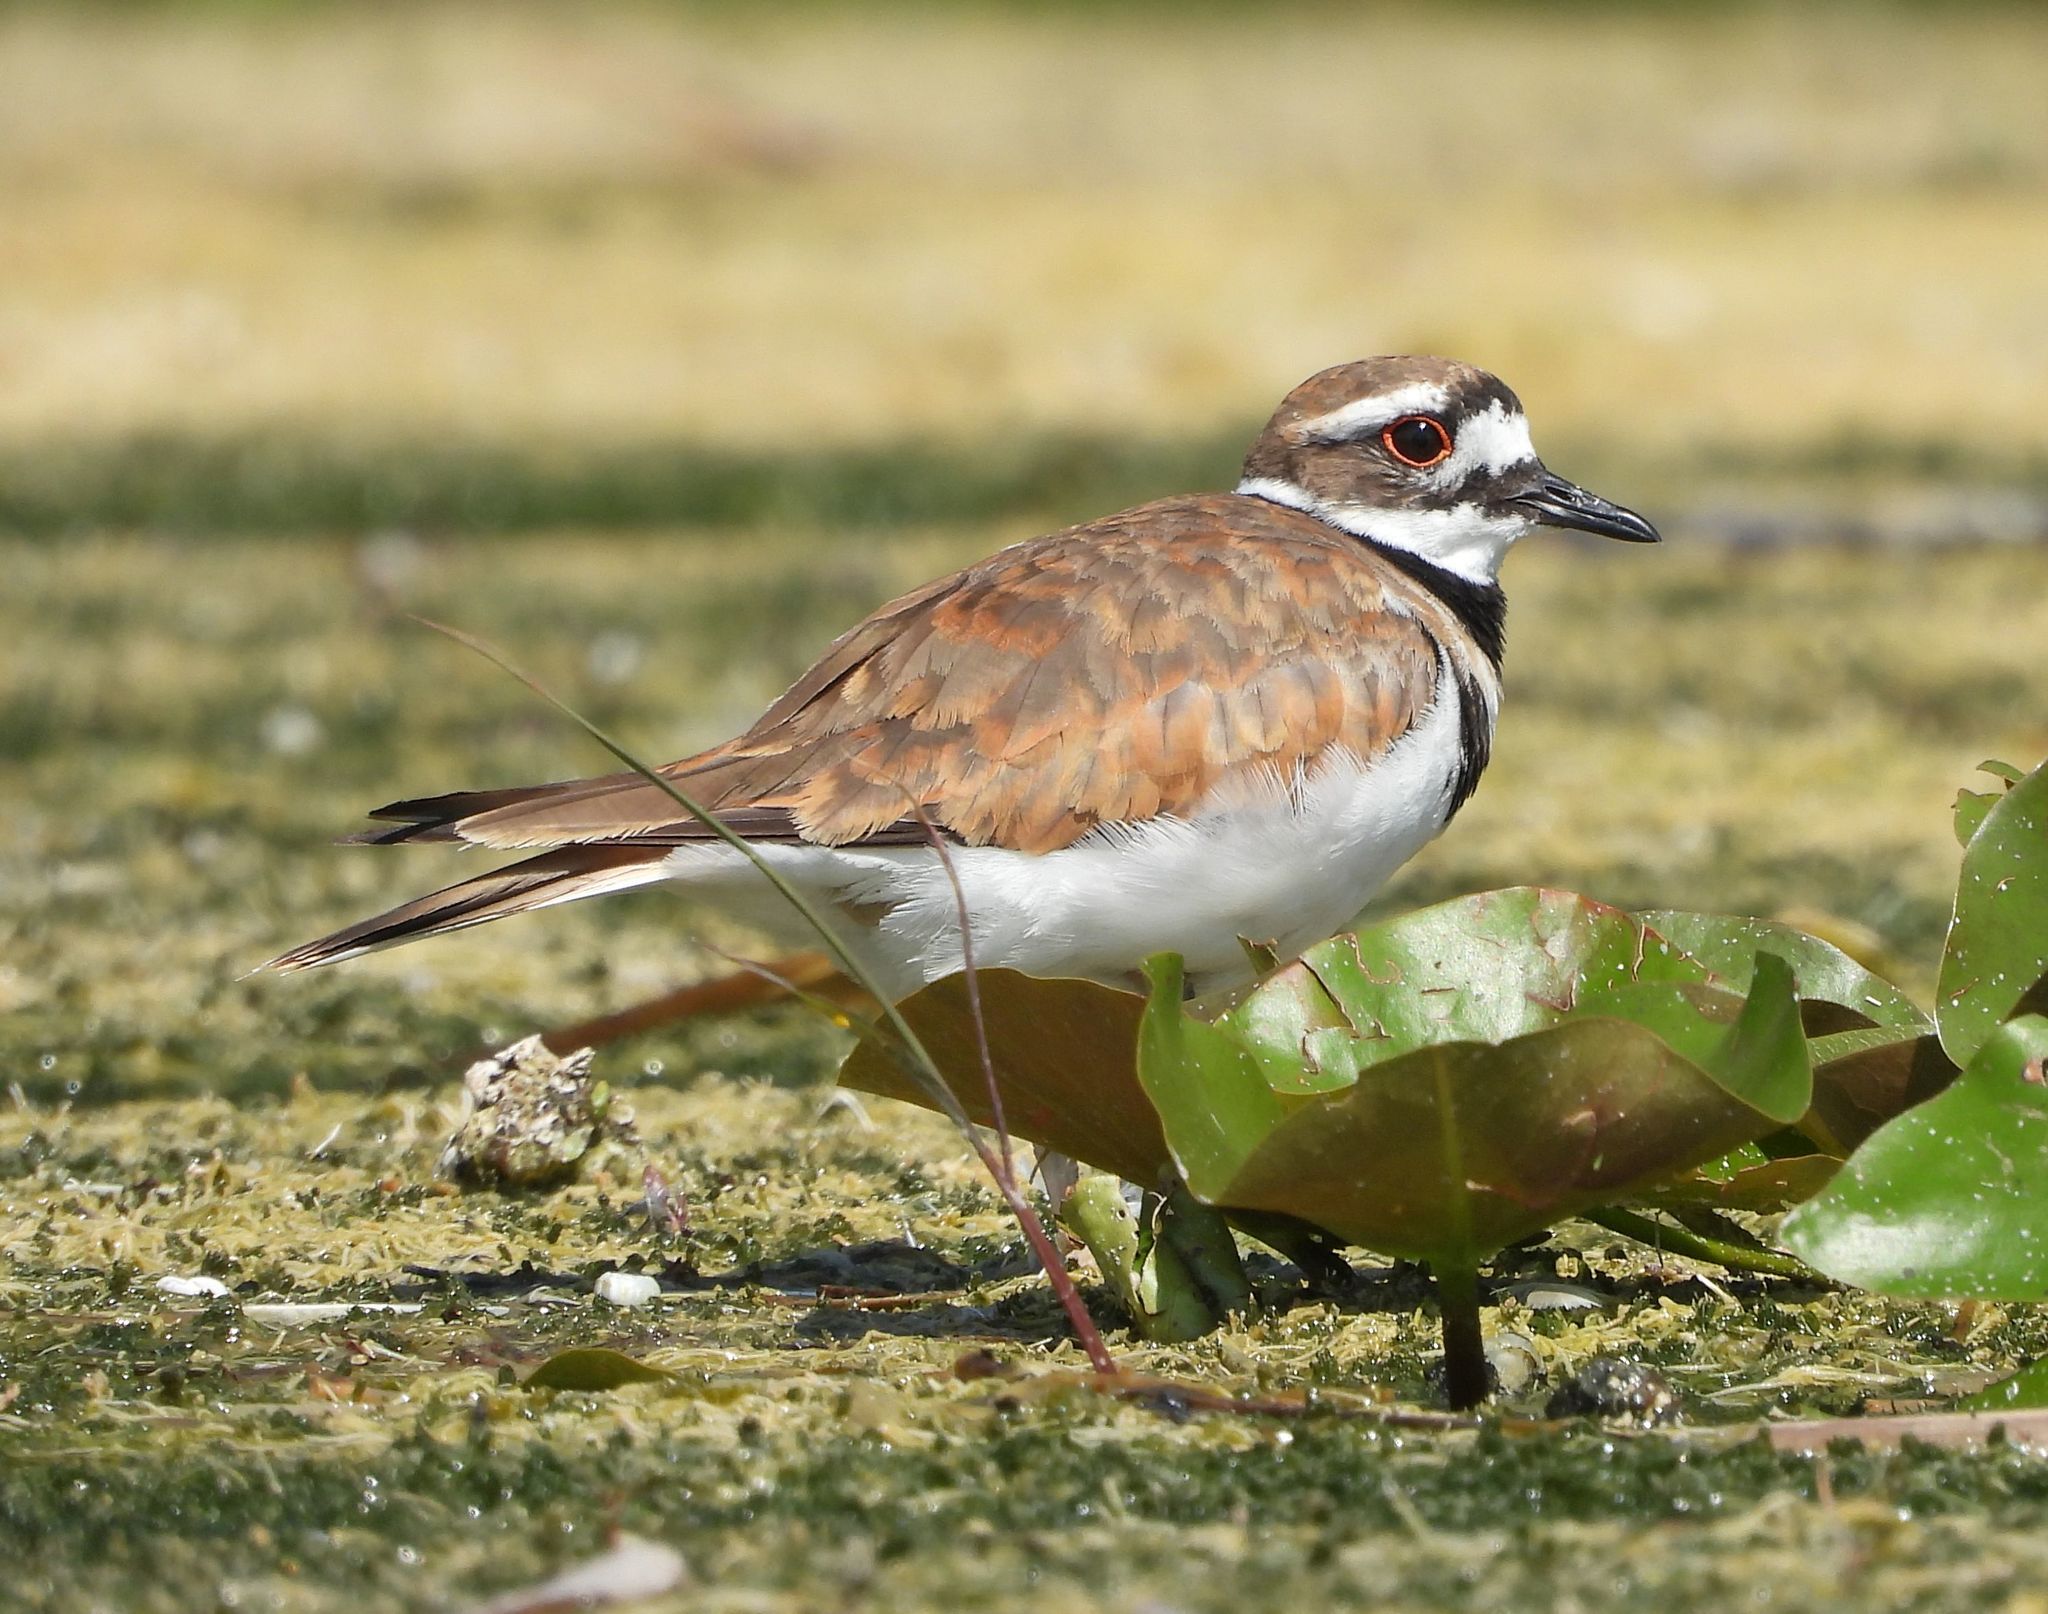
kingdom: Animalia
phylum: Chordata
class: Aves
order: Charadriiformes
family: Charadriidae
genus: Charadrius
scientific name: Charadrius vociferus
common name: Killdeer
